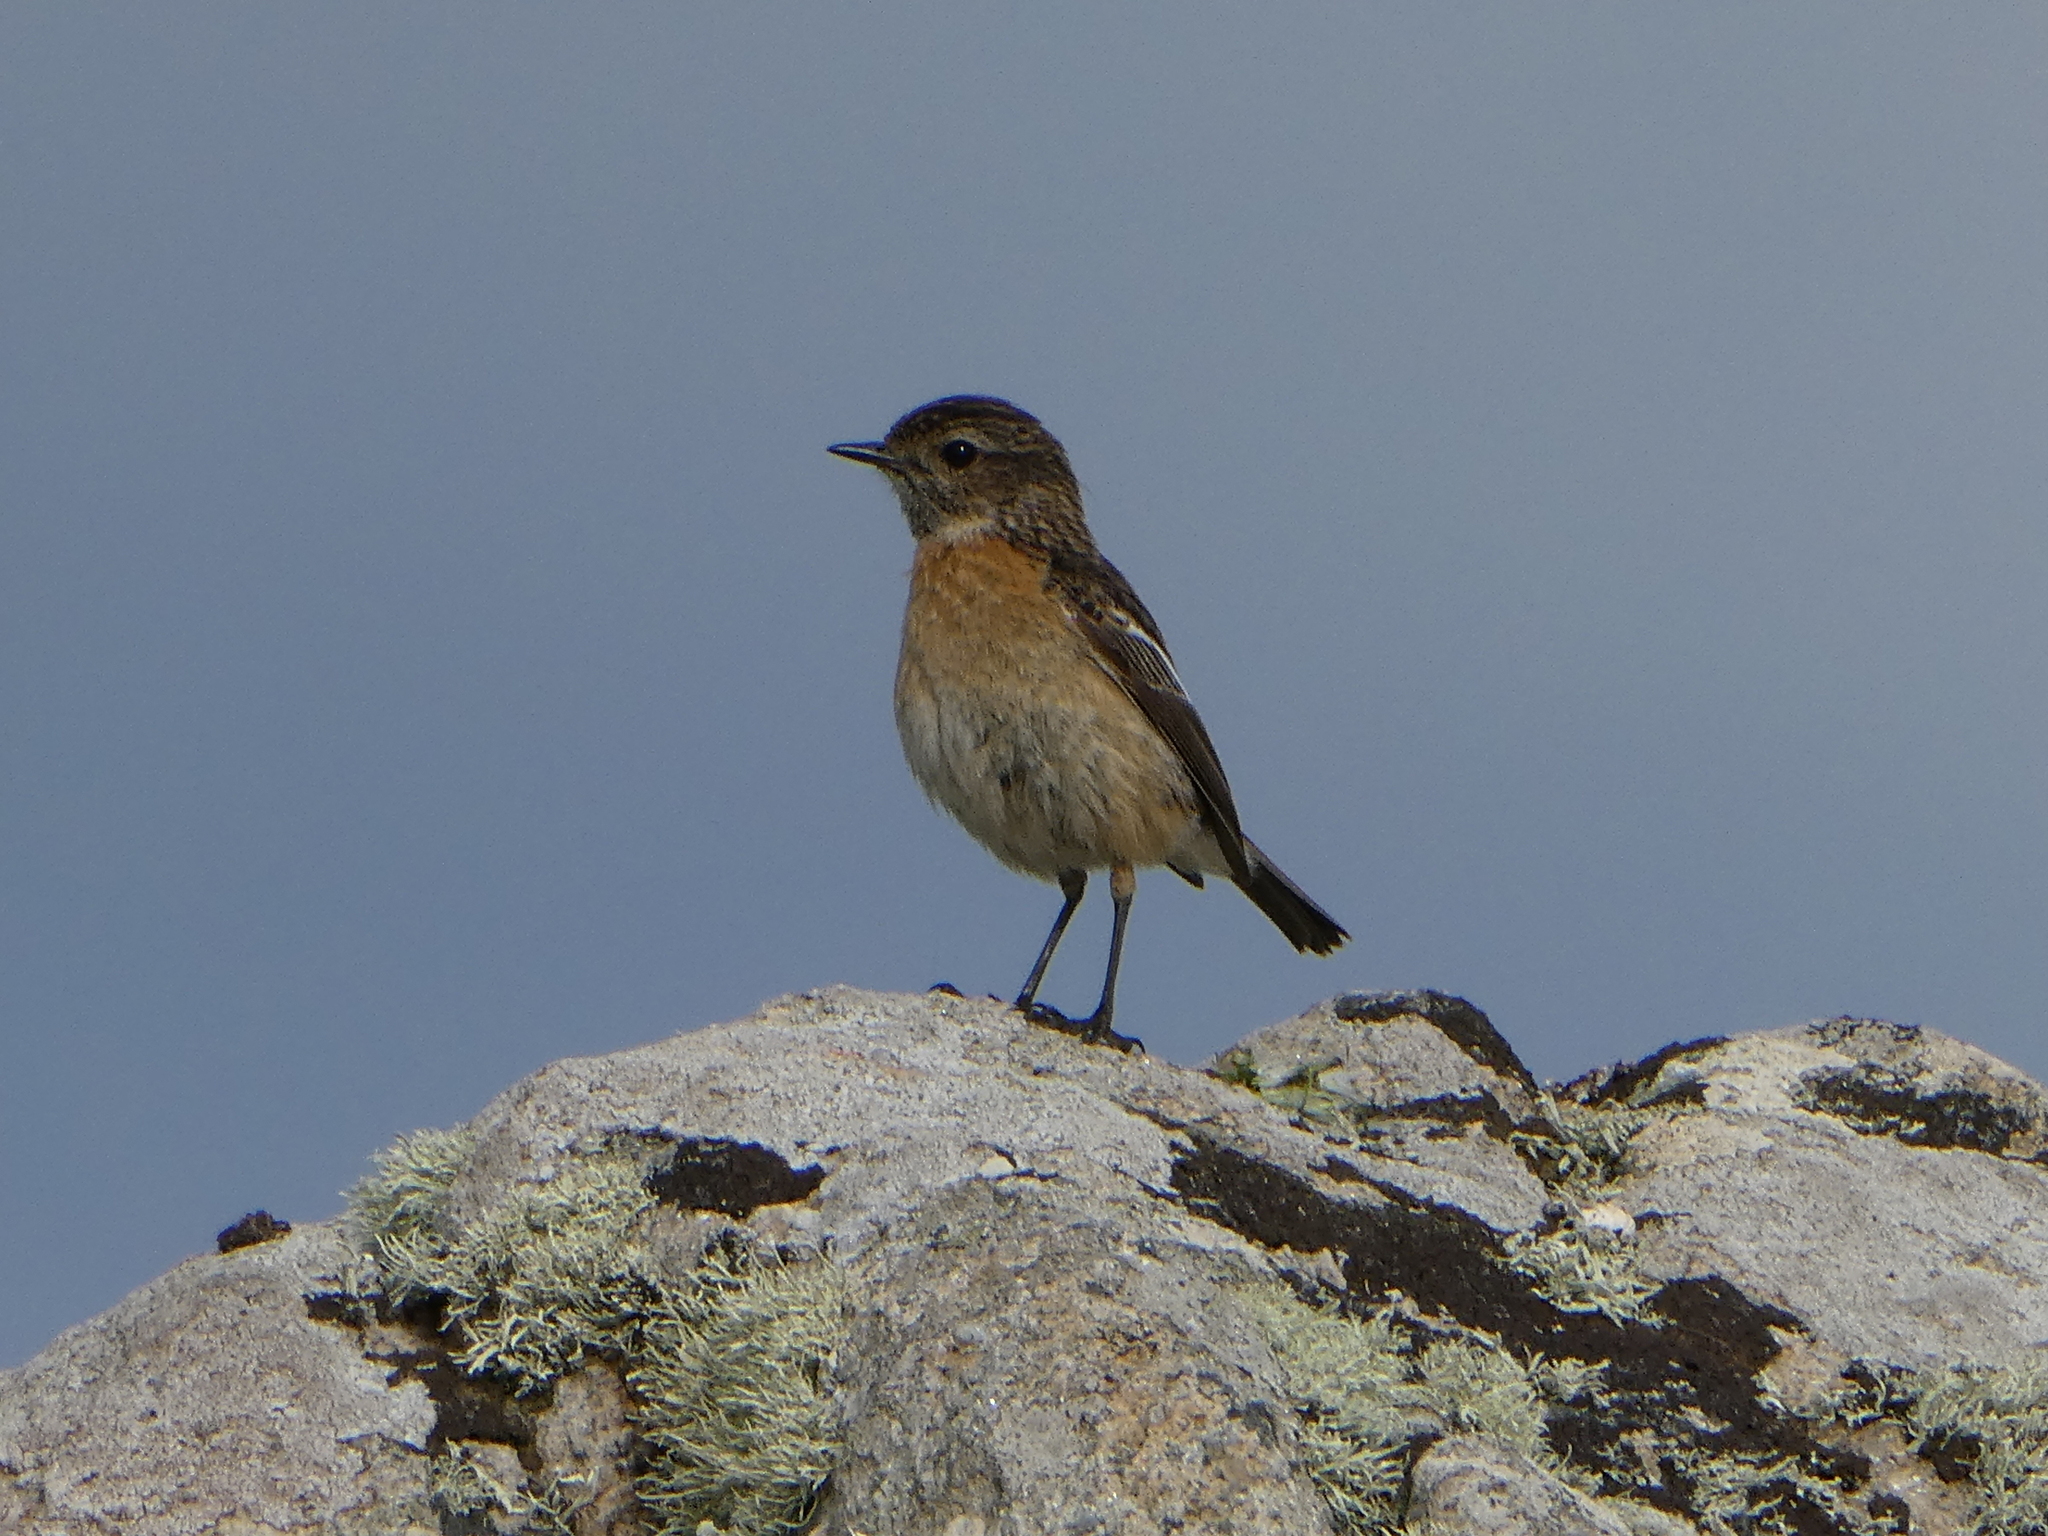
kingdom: Animalia
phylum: Chordata
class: Aves
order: Passeriformes
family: Muscicapidae
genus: Saxicola
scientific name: Saxicola rubicola
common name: European stonechat
